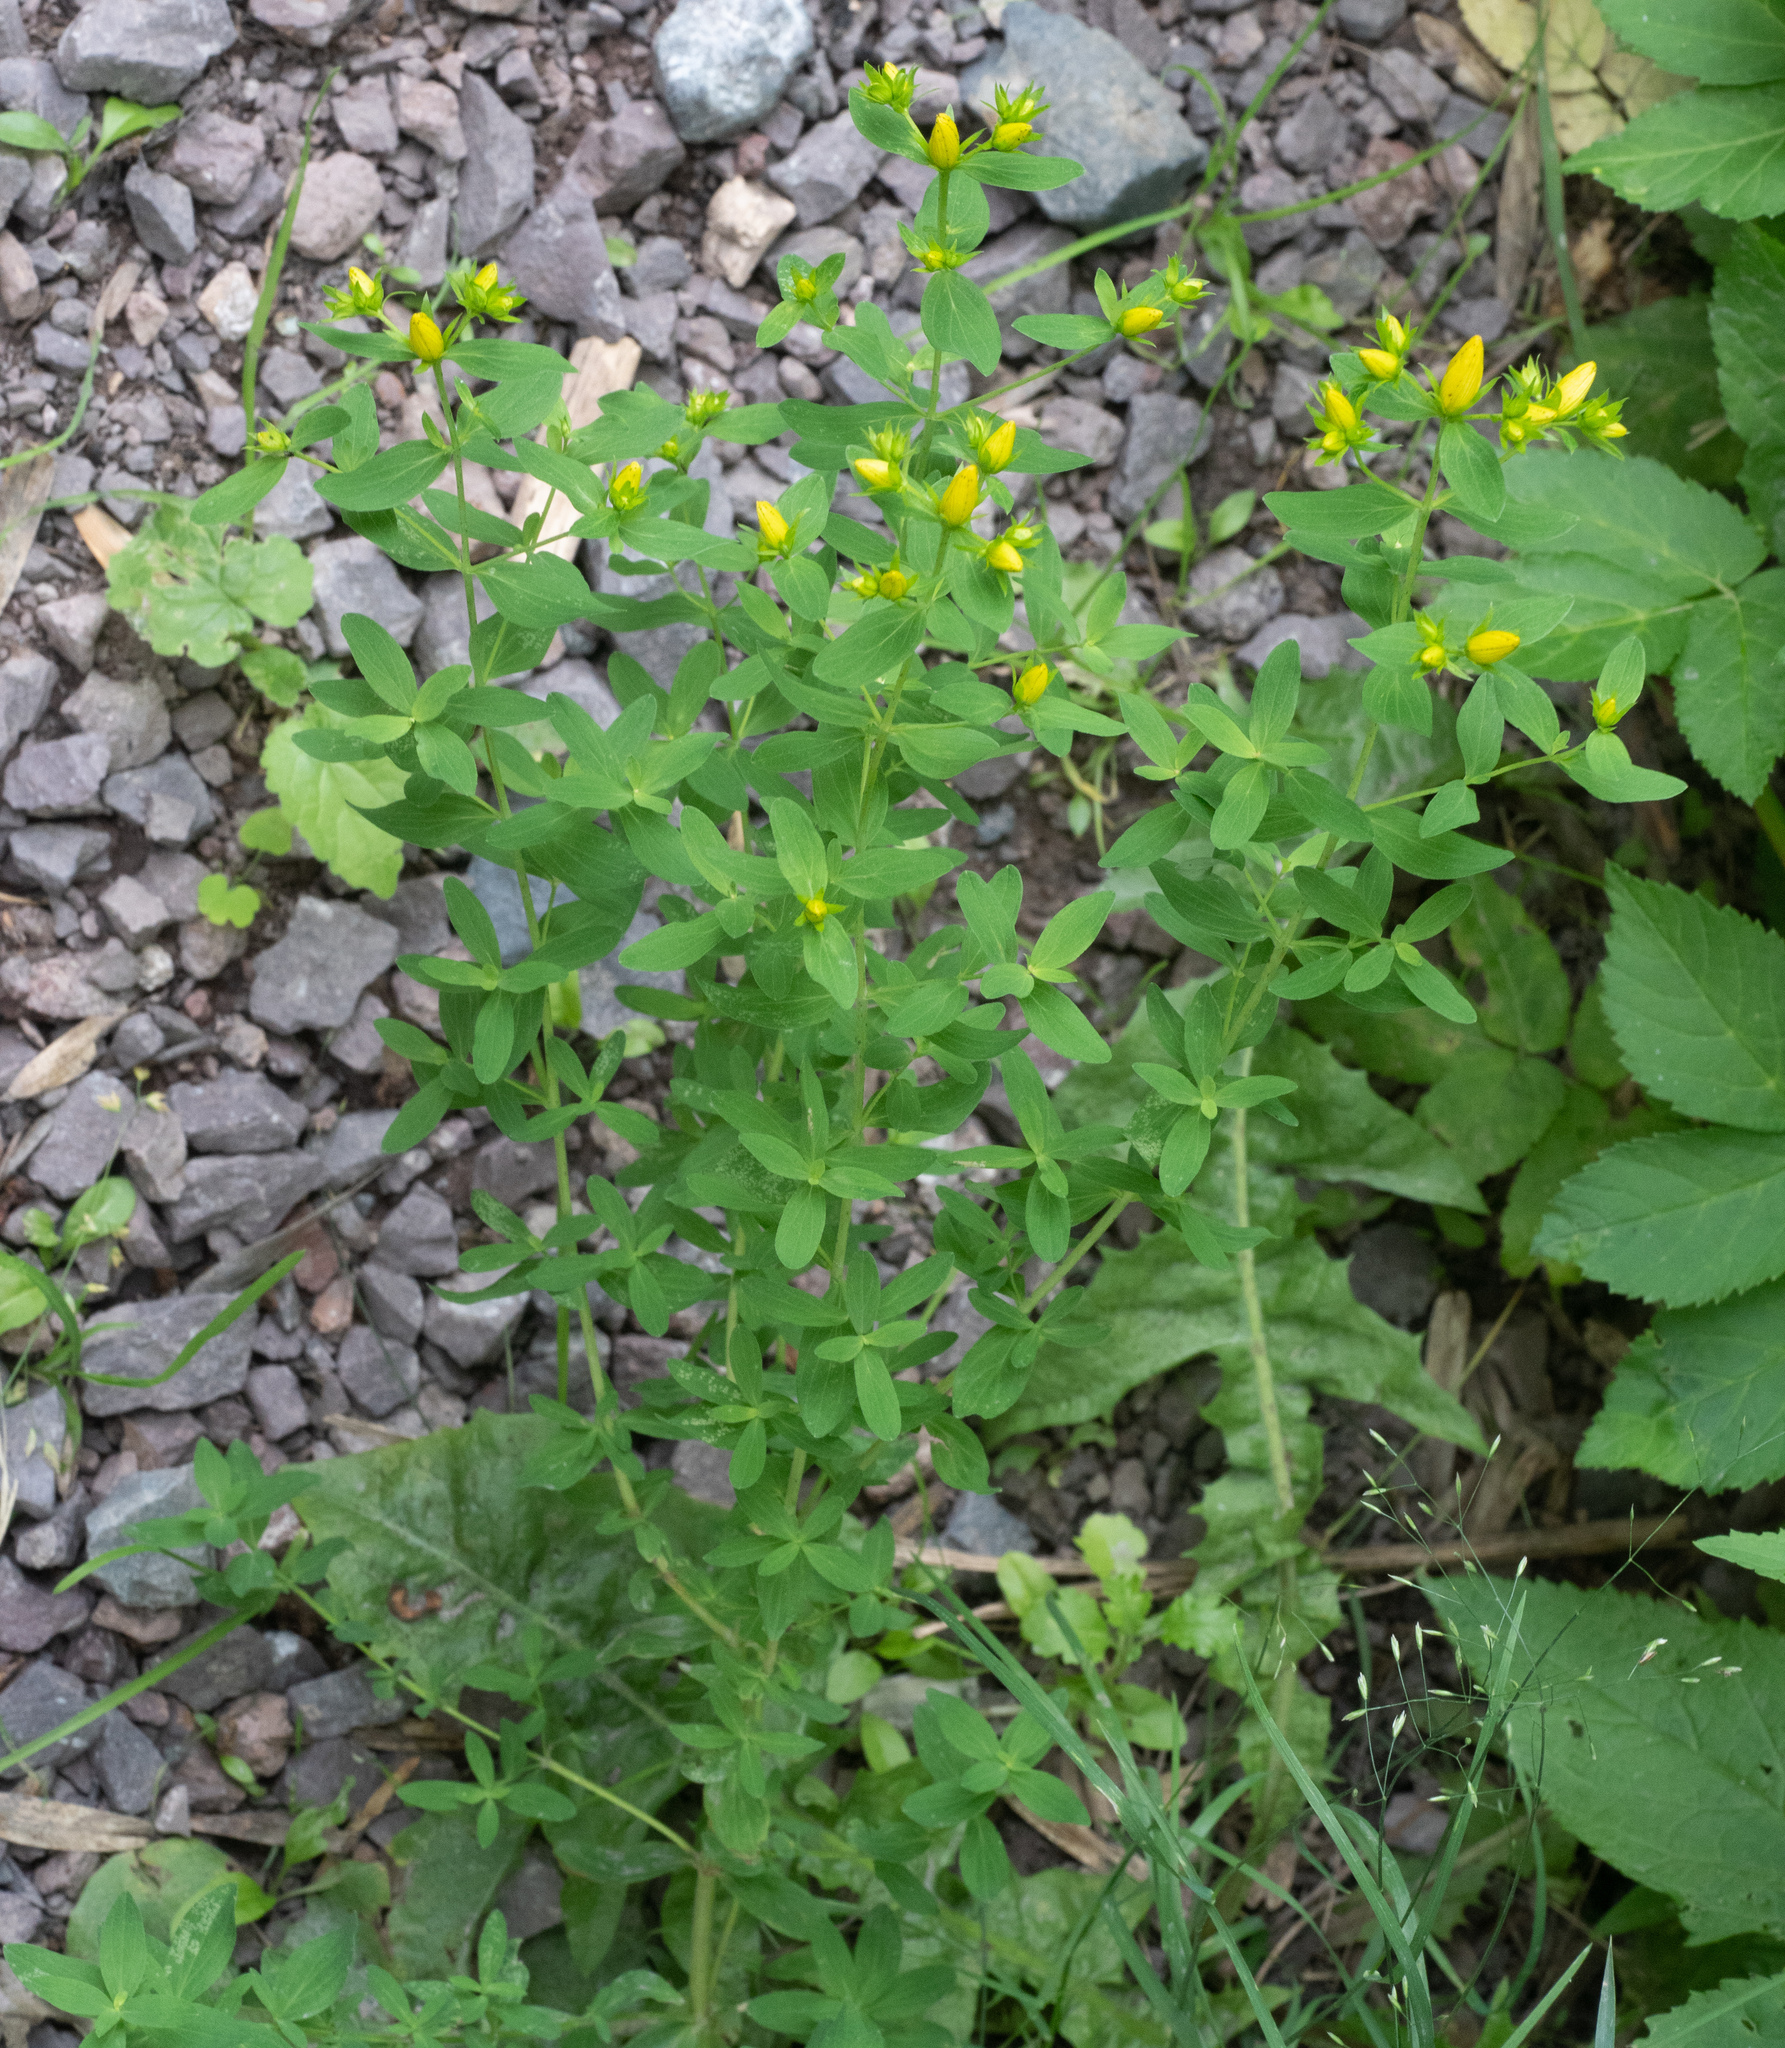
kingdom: Plantae
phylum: Tracheophyta
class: Magnoliopsida
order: Malpighiales
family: Hypericaceae
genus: Hypericum
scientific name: Hypericum perforatum
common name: Common st. johnswort
